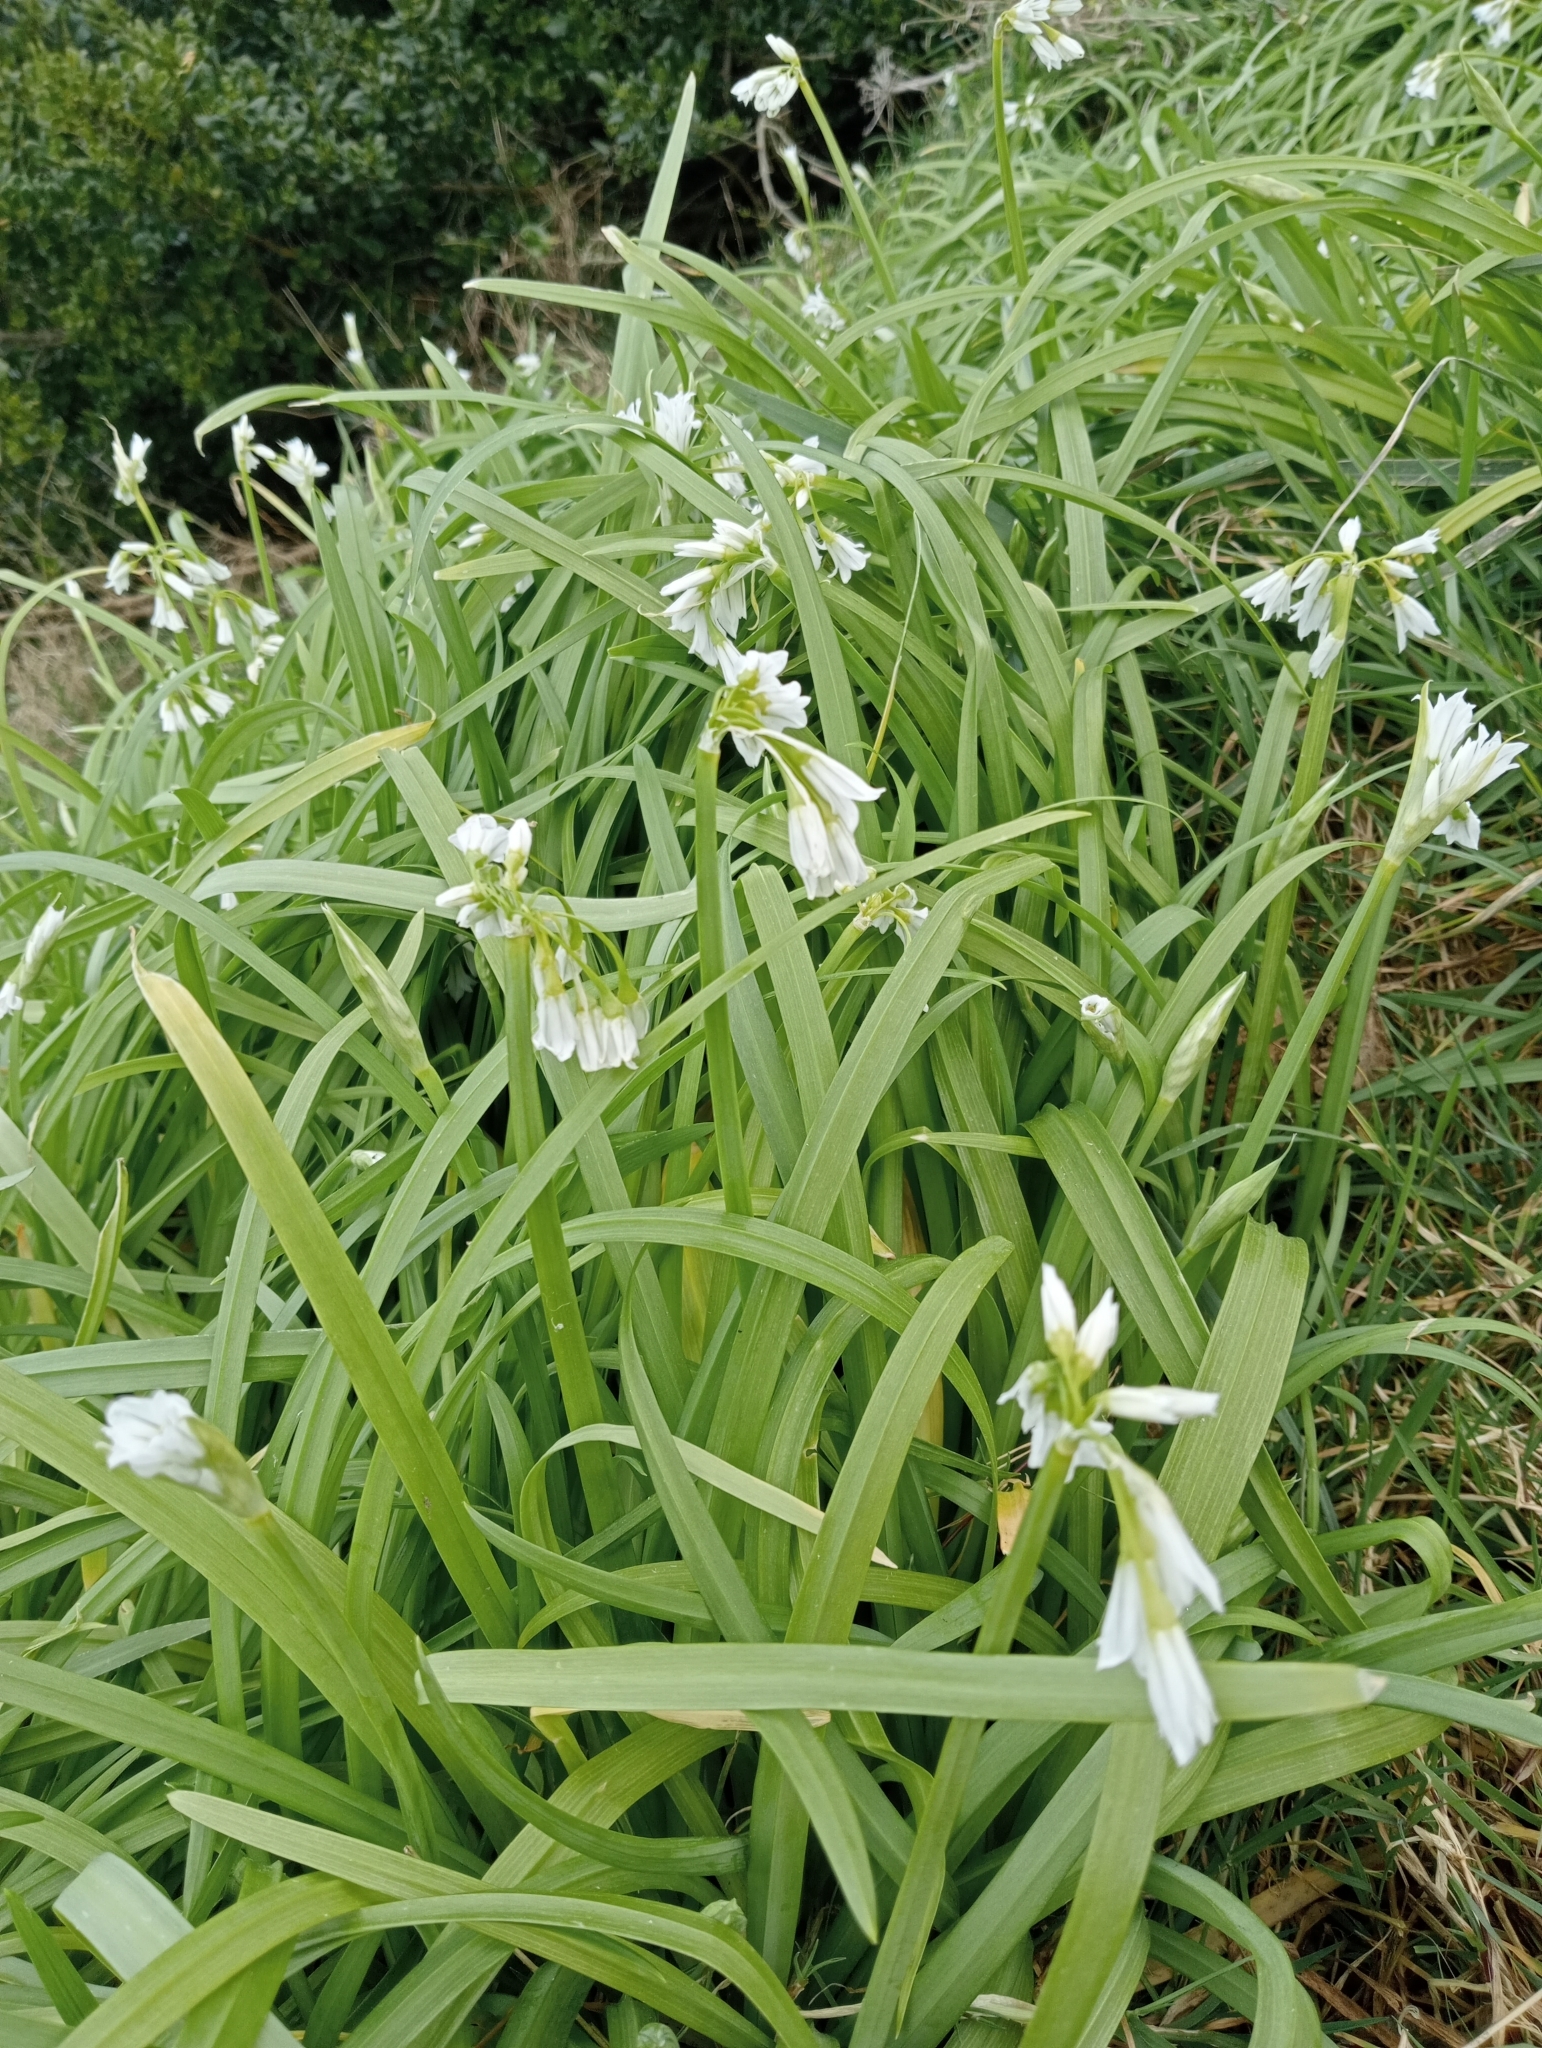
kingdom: Plantae
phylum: Tracheophyta
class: Liliopsida
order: Asparagales
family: Amaryllidaceae
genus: Allium
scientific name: Allium triquetrum
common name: Three-cornered garlic
